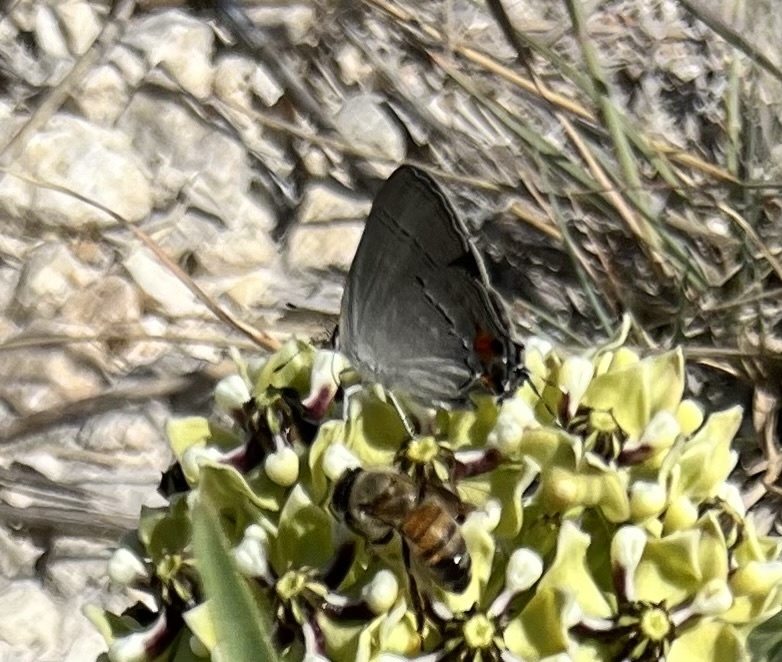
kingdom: Animalia
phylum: Arthropoda
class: Insecta
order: Lepidoptera
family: Lycaenidae
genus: Strymon
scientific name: Strymon melinus
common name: Gray hairstreak
